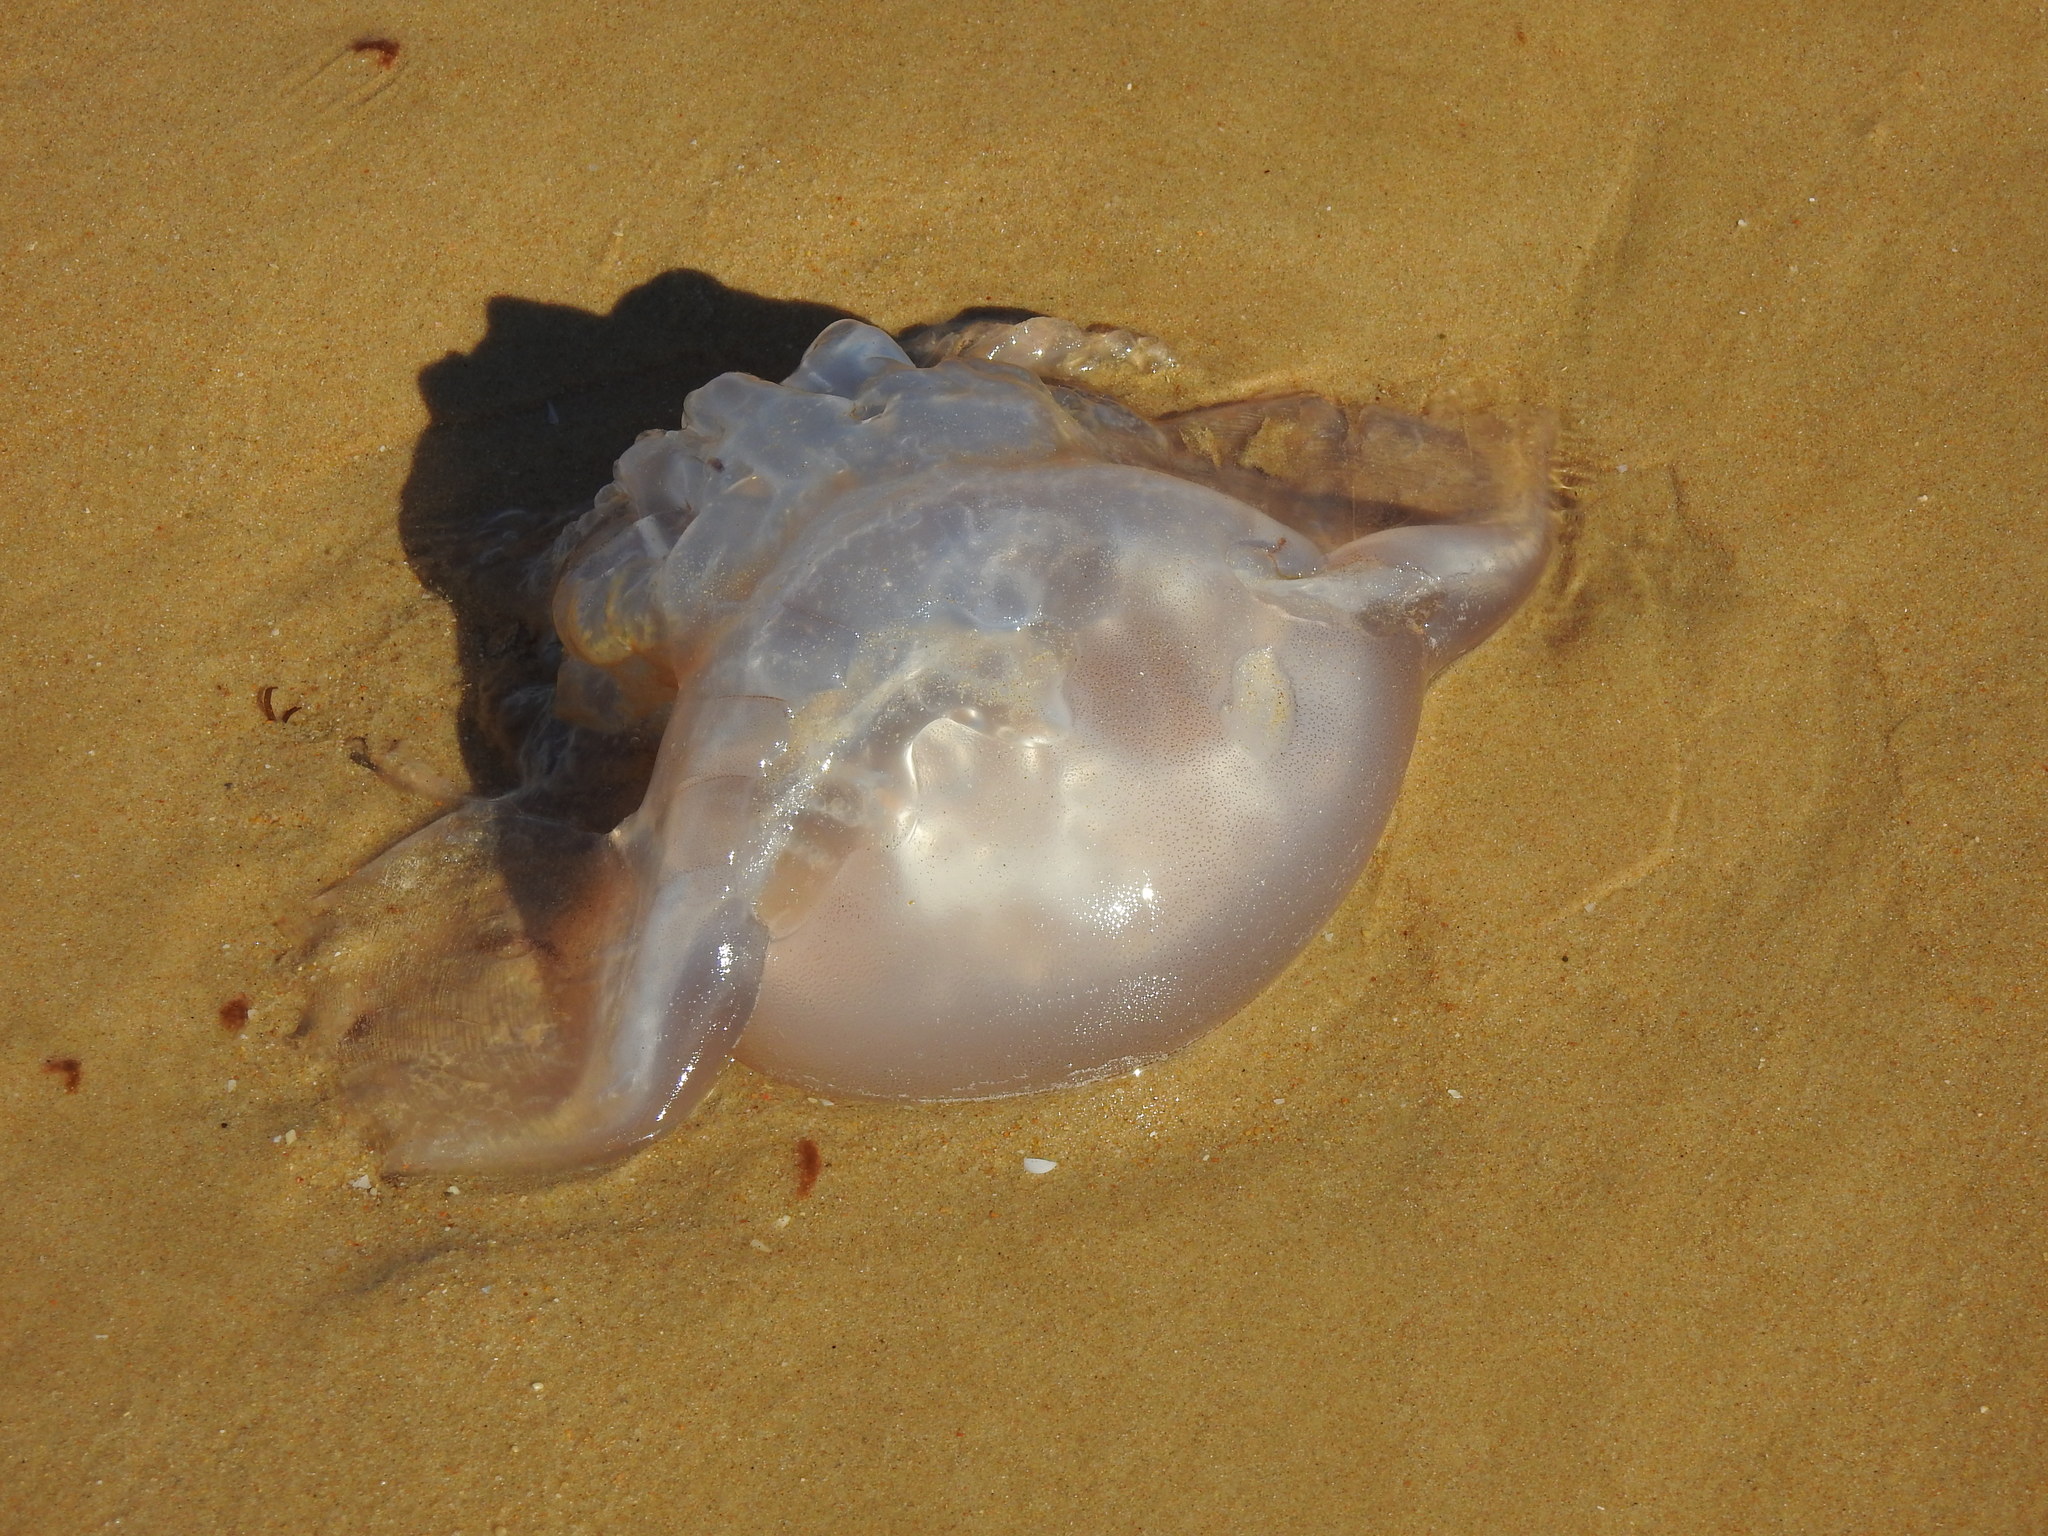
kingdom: Animalia
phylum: Cnidaria
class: Scyphozoa
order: Rhizostomeae
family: Rhizostomatidae
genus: Rhizostoma
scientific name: Rhizostoma luteum
